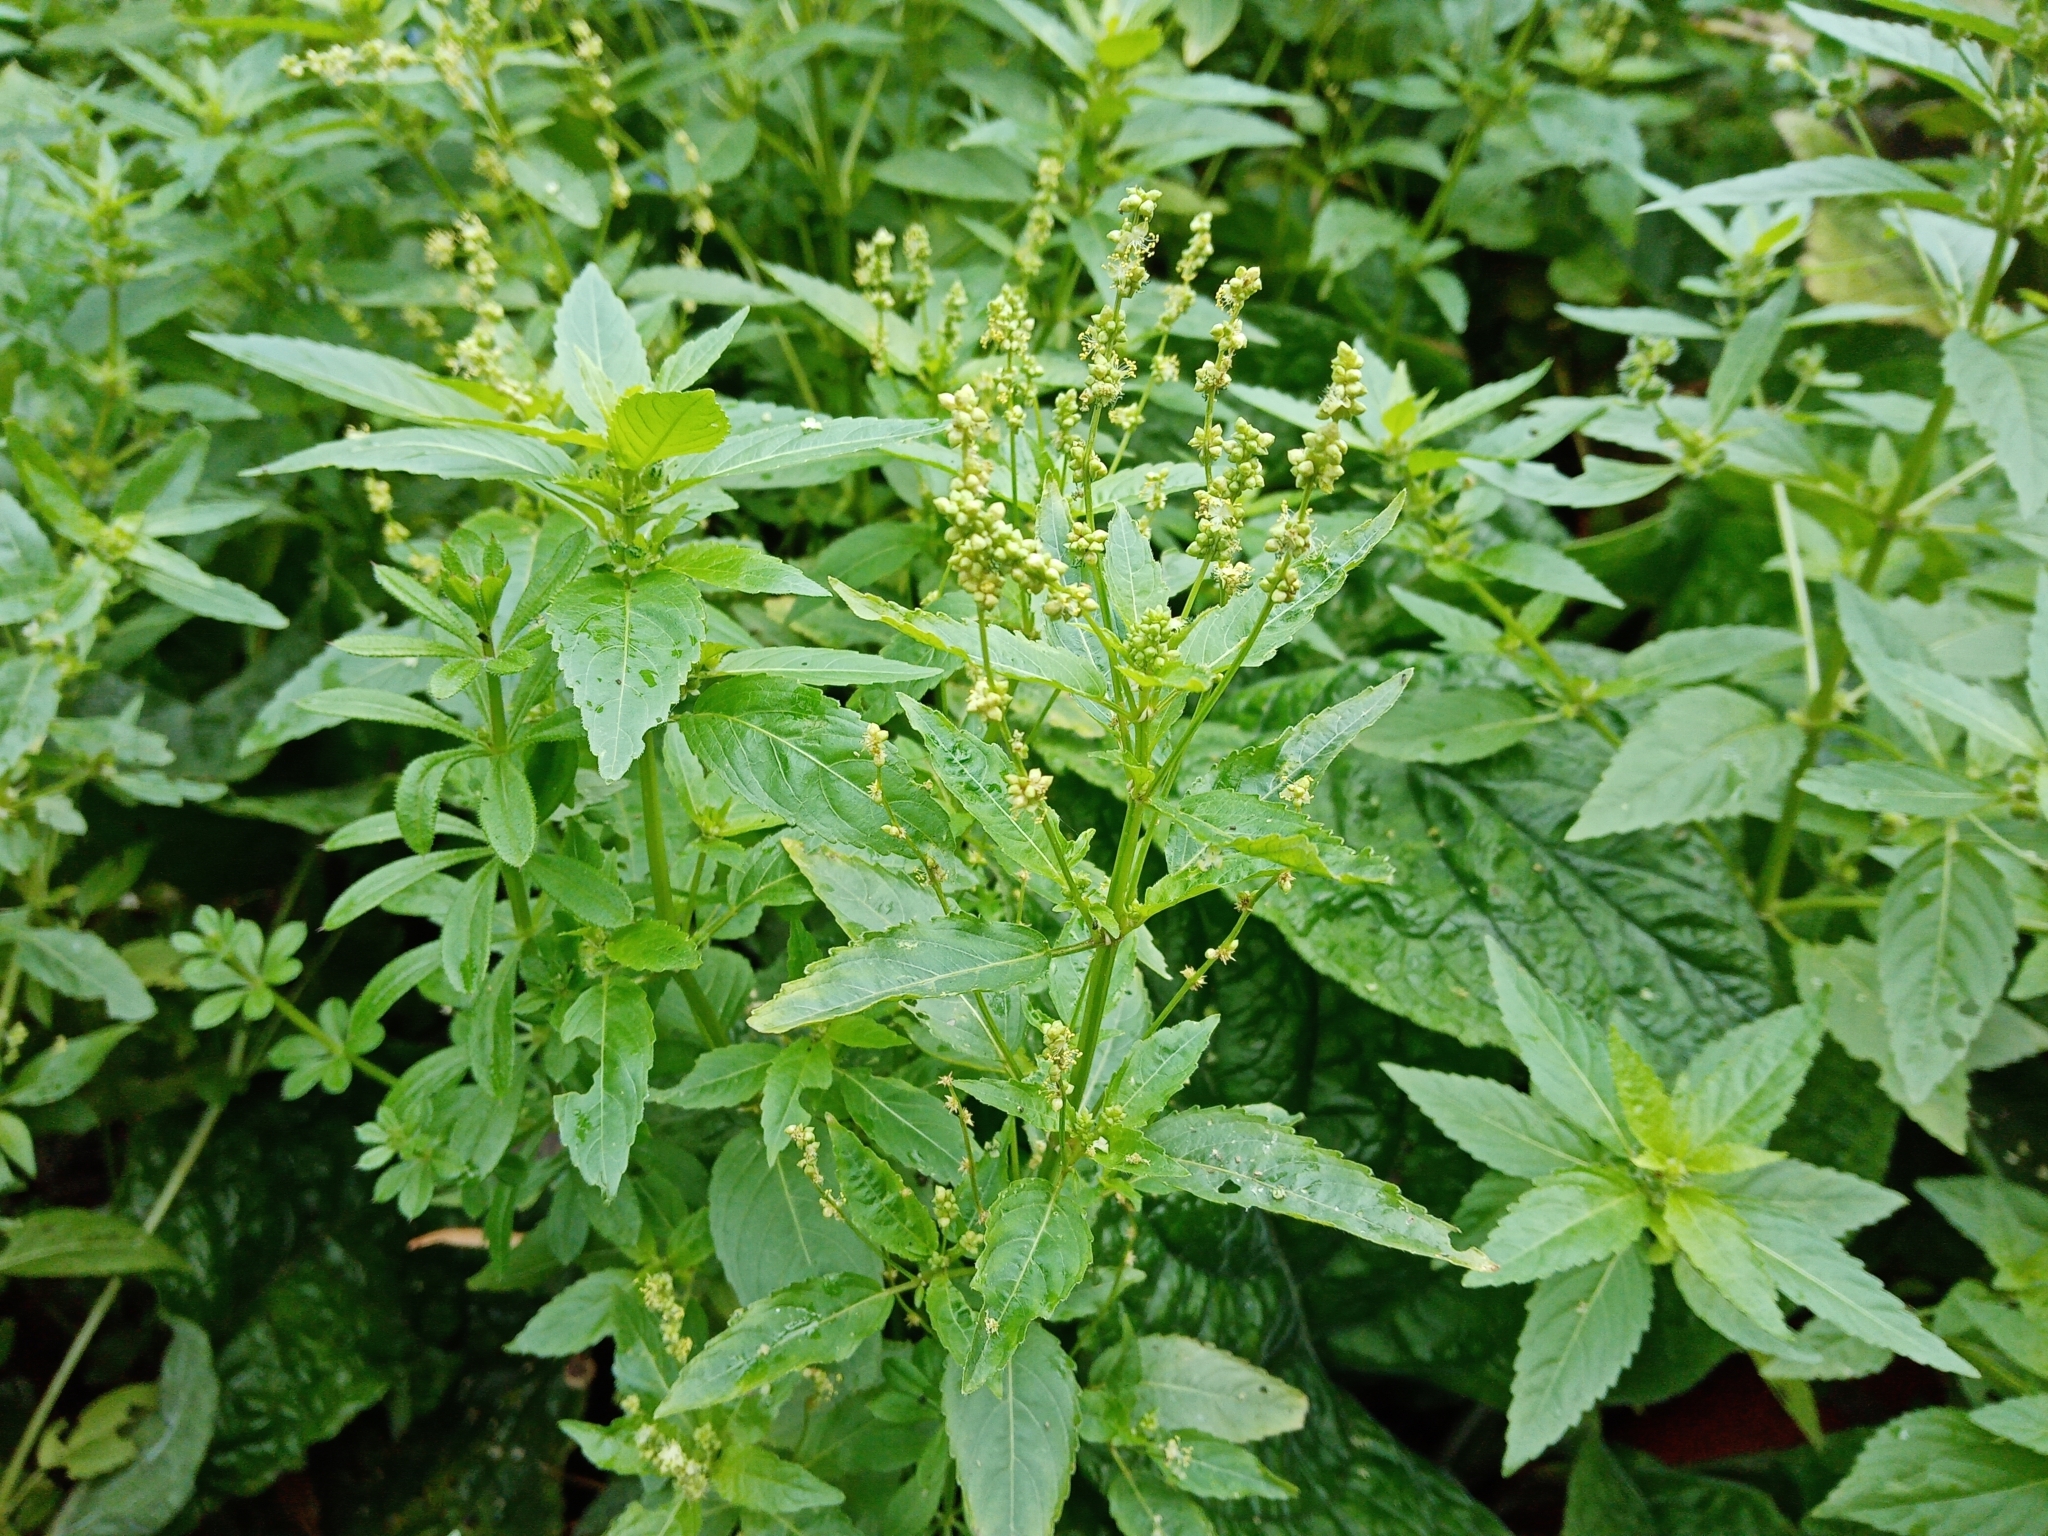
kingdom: Plantae
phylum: Tracheophyta
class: Magnoliopsida
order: Malpighiales
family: Euphorbiaceae
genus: Mercurialis
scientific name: Mercurialis annua
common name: Annual mercury
